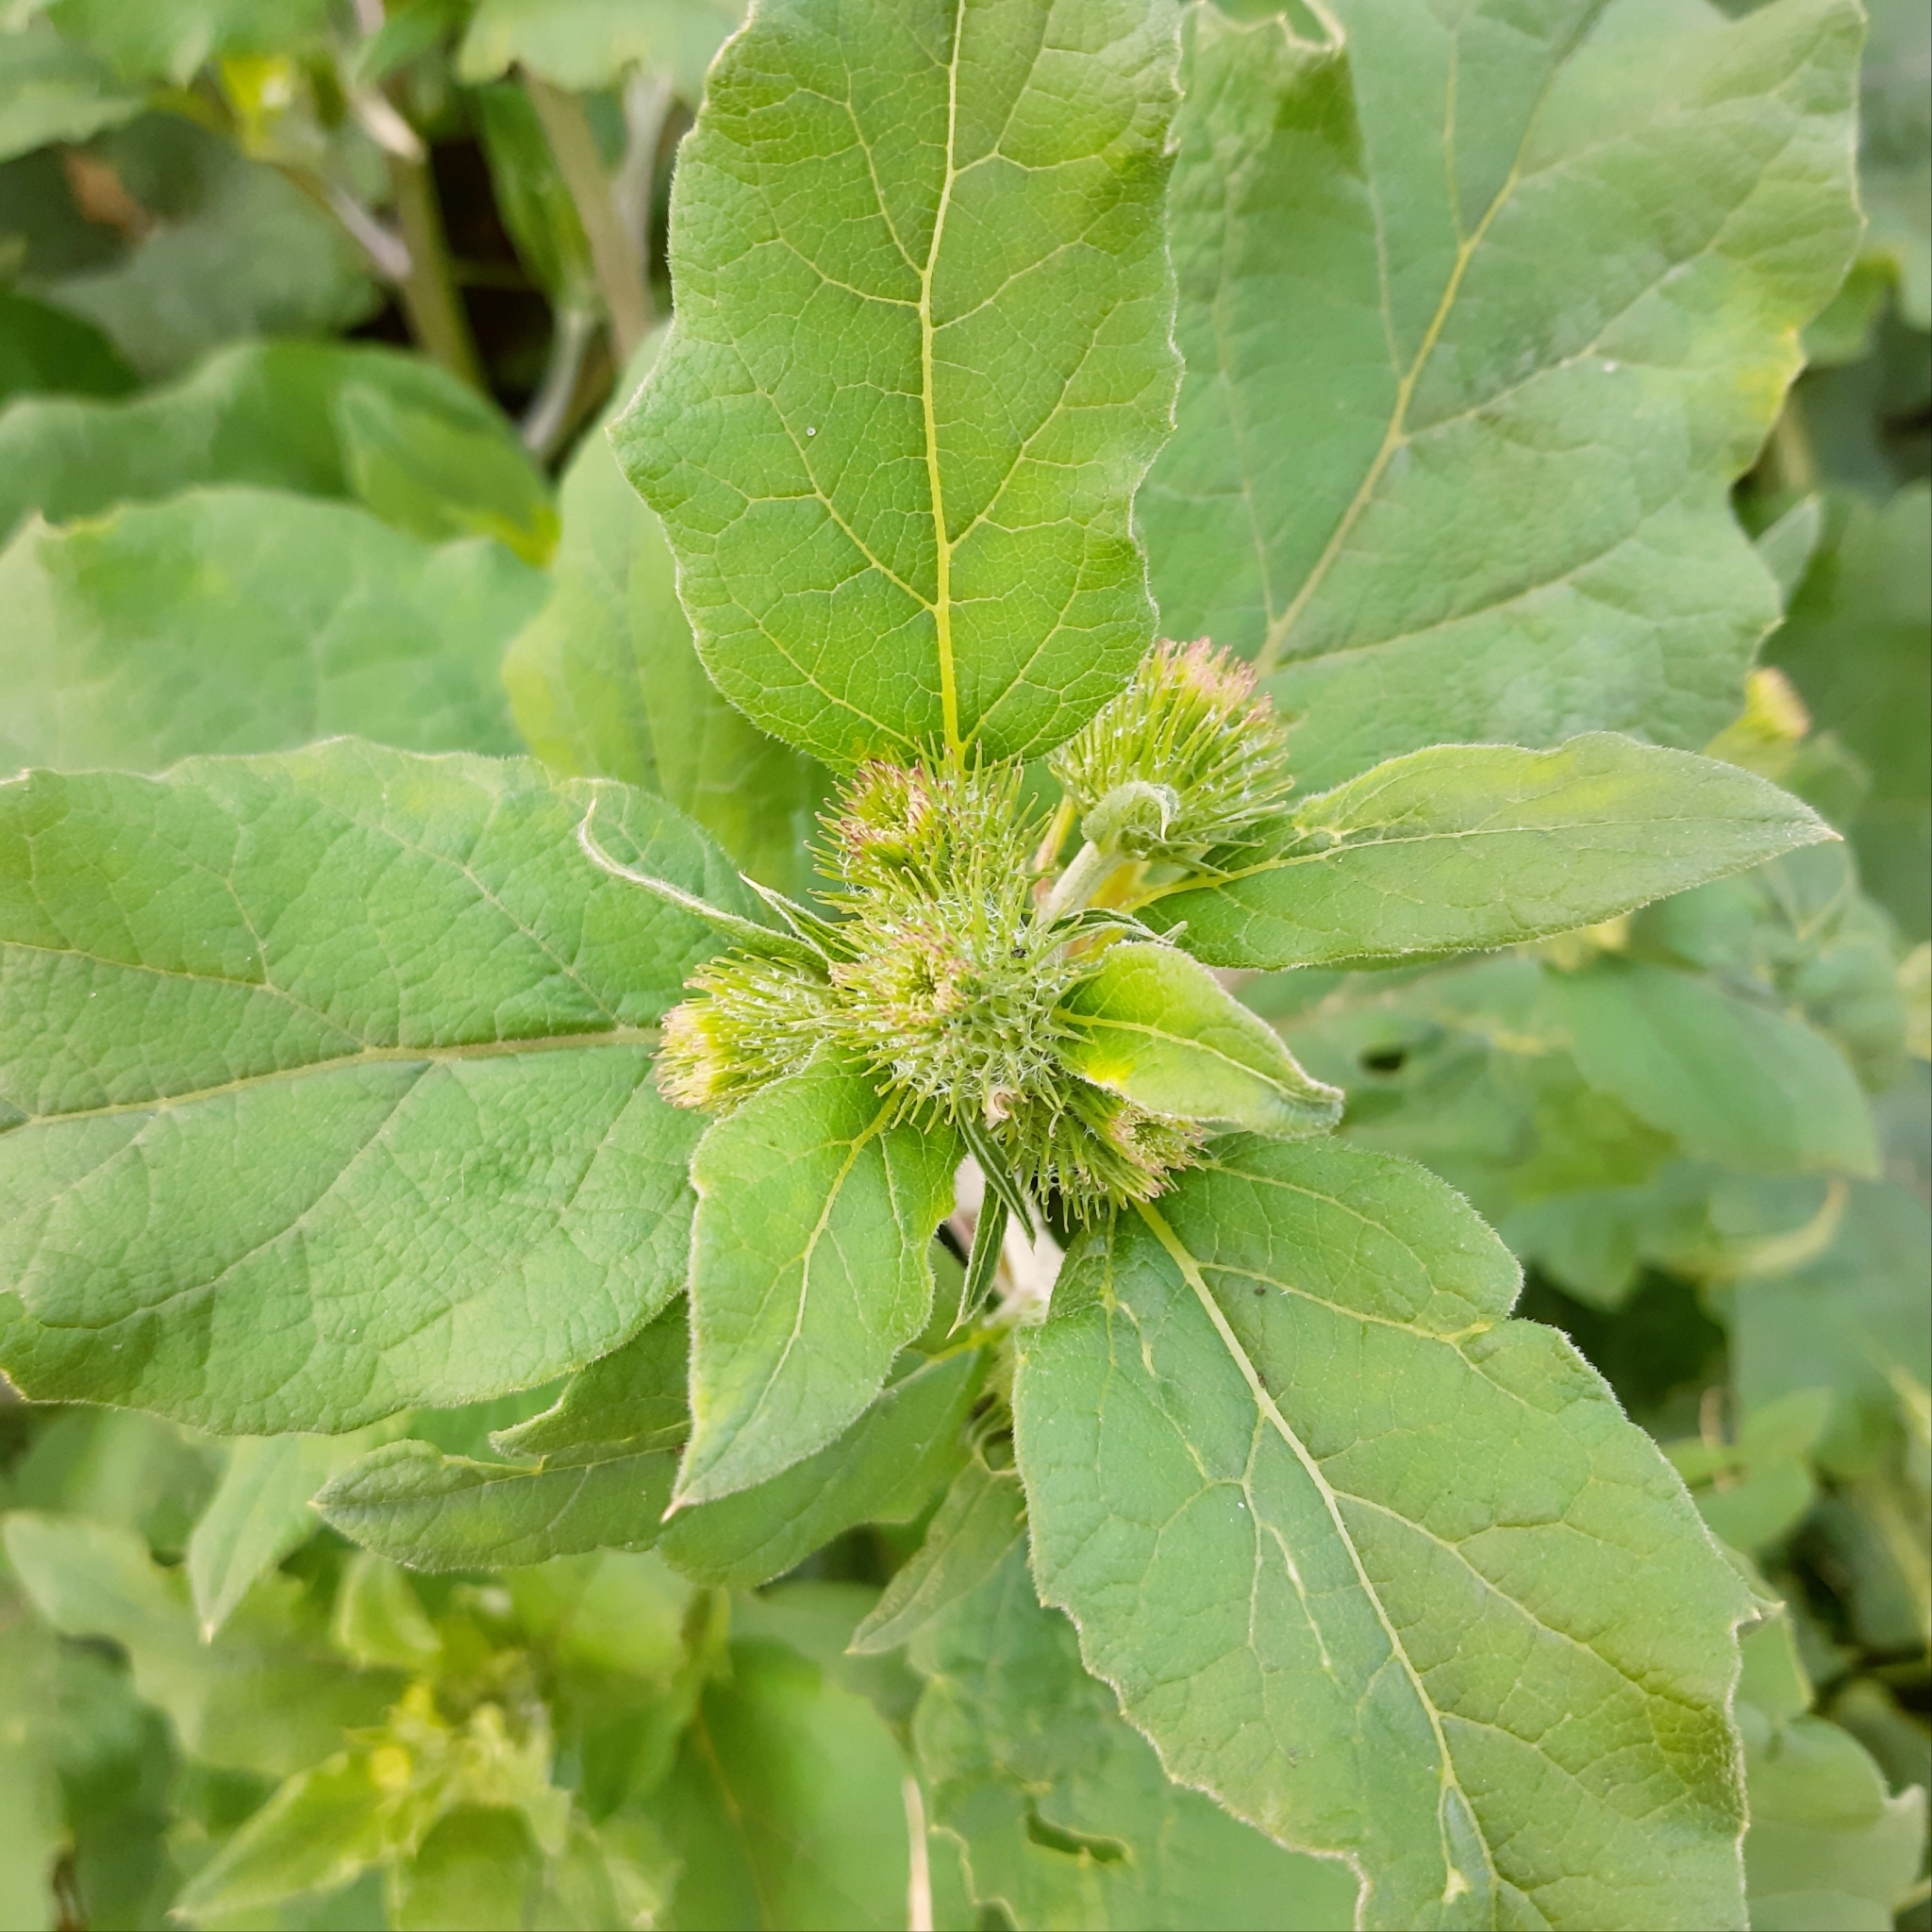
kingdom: Plantae
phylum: Tracheophyta
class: Magnoliopsida
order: Asterales
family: Asteraceae
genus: Arctium
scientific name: Arctium minus
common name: Lesser burdock
